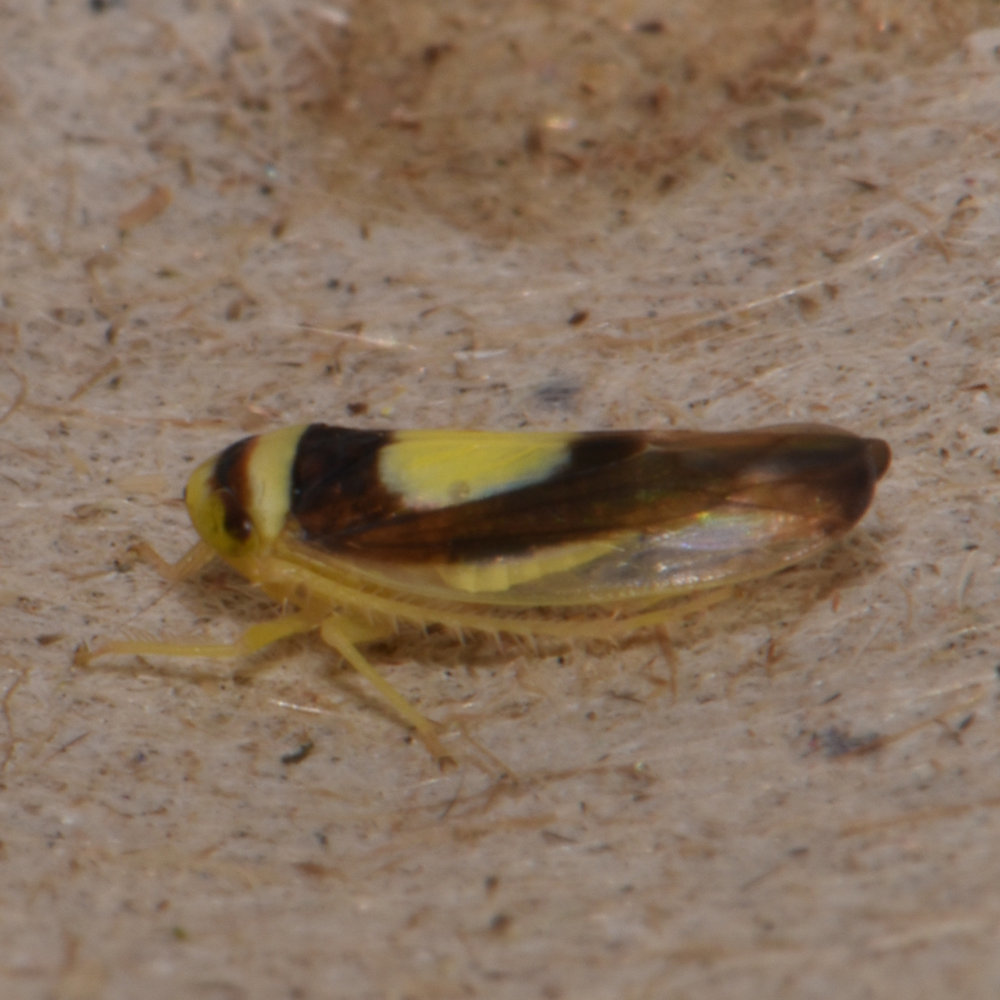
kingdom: Animalia
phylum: Arthropoda
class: Insecta
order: Hemiptera
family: Cicadellidae
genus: Colladonus
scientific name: Colladonus clitellarius
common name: The saddleback leafhopper
